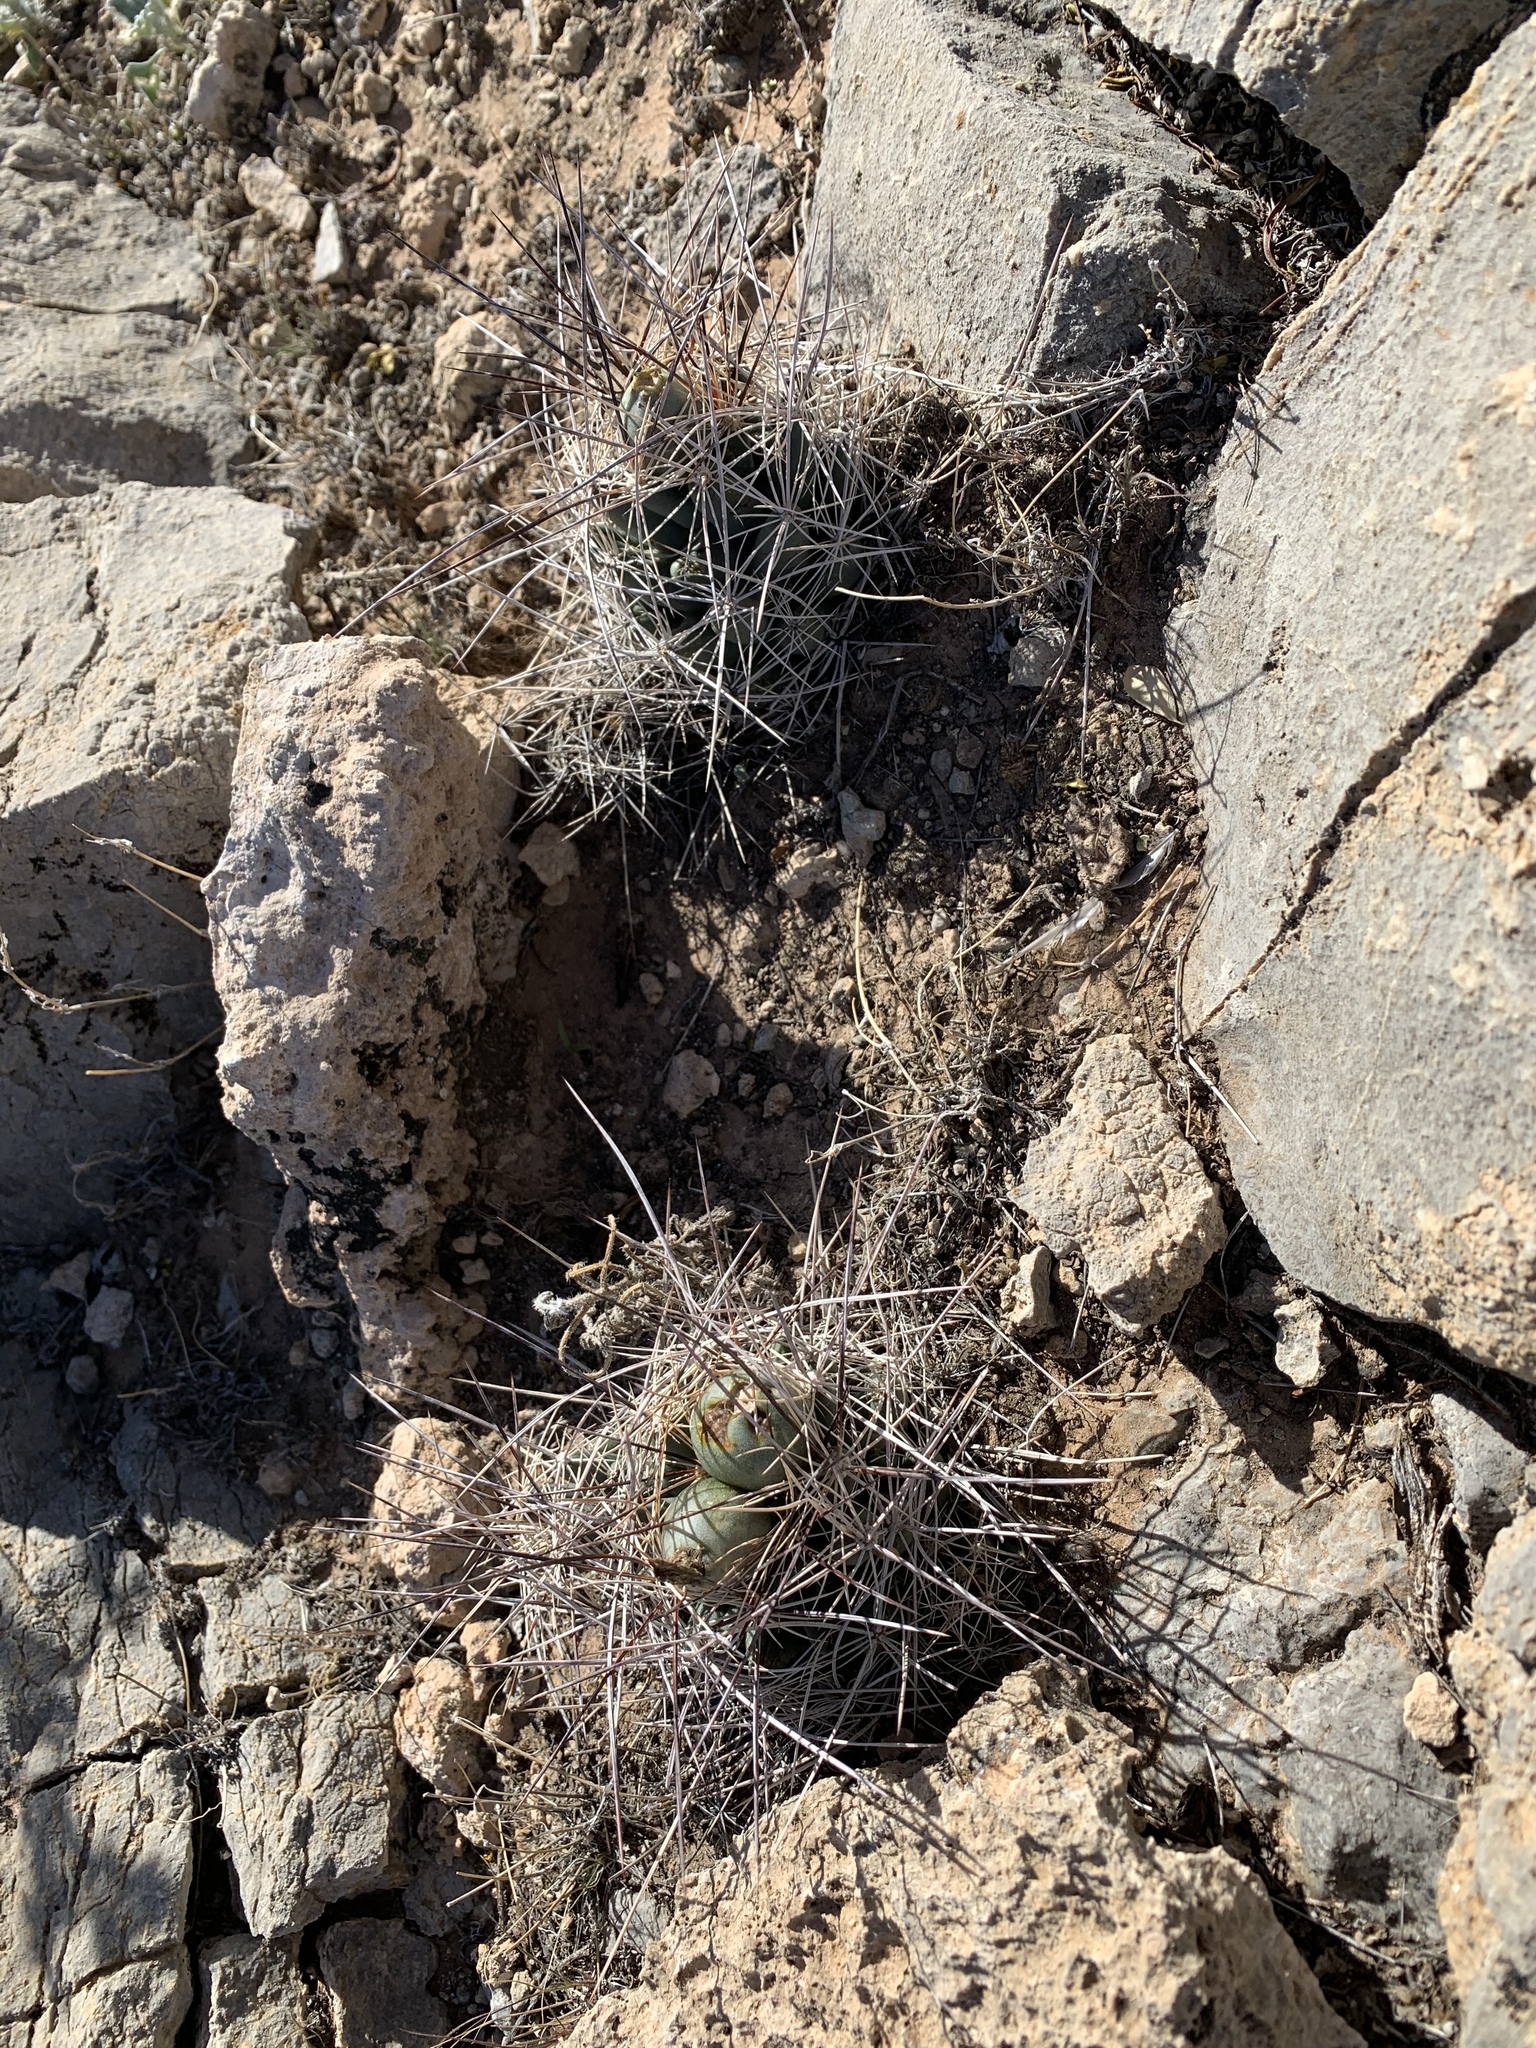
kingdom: Plantae
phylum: Tracheophyta
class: Magnoliopsida
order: Caryophyllales
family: Cactaceae
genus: Coryphantha
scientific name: Coryphantha macromeris
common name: Nipple beehive cactus
